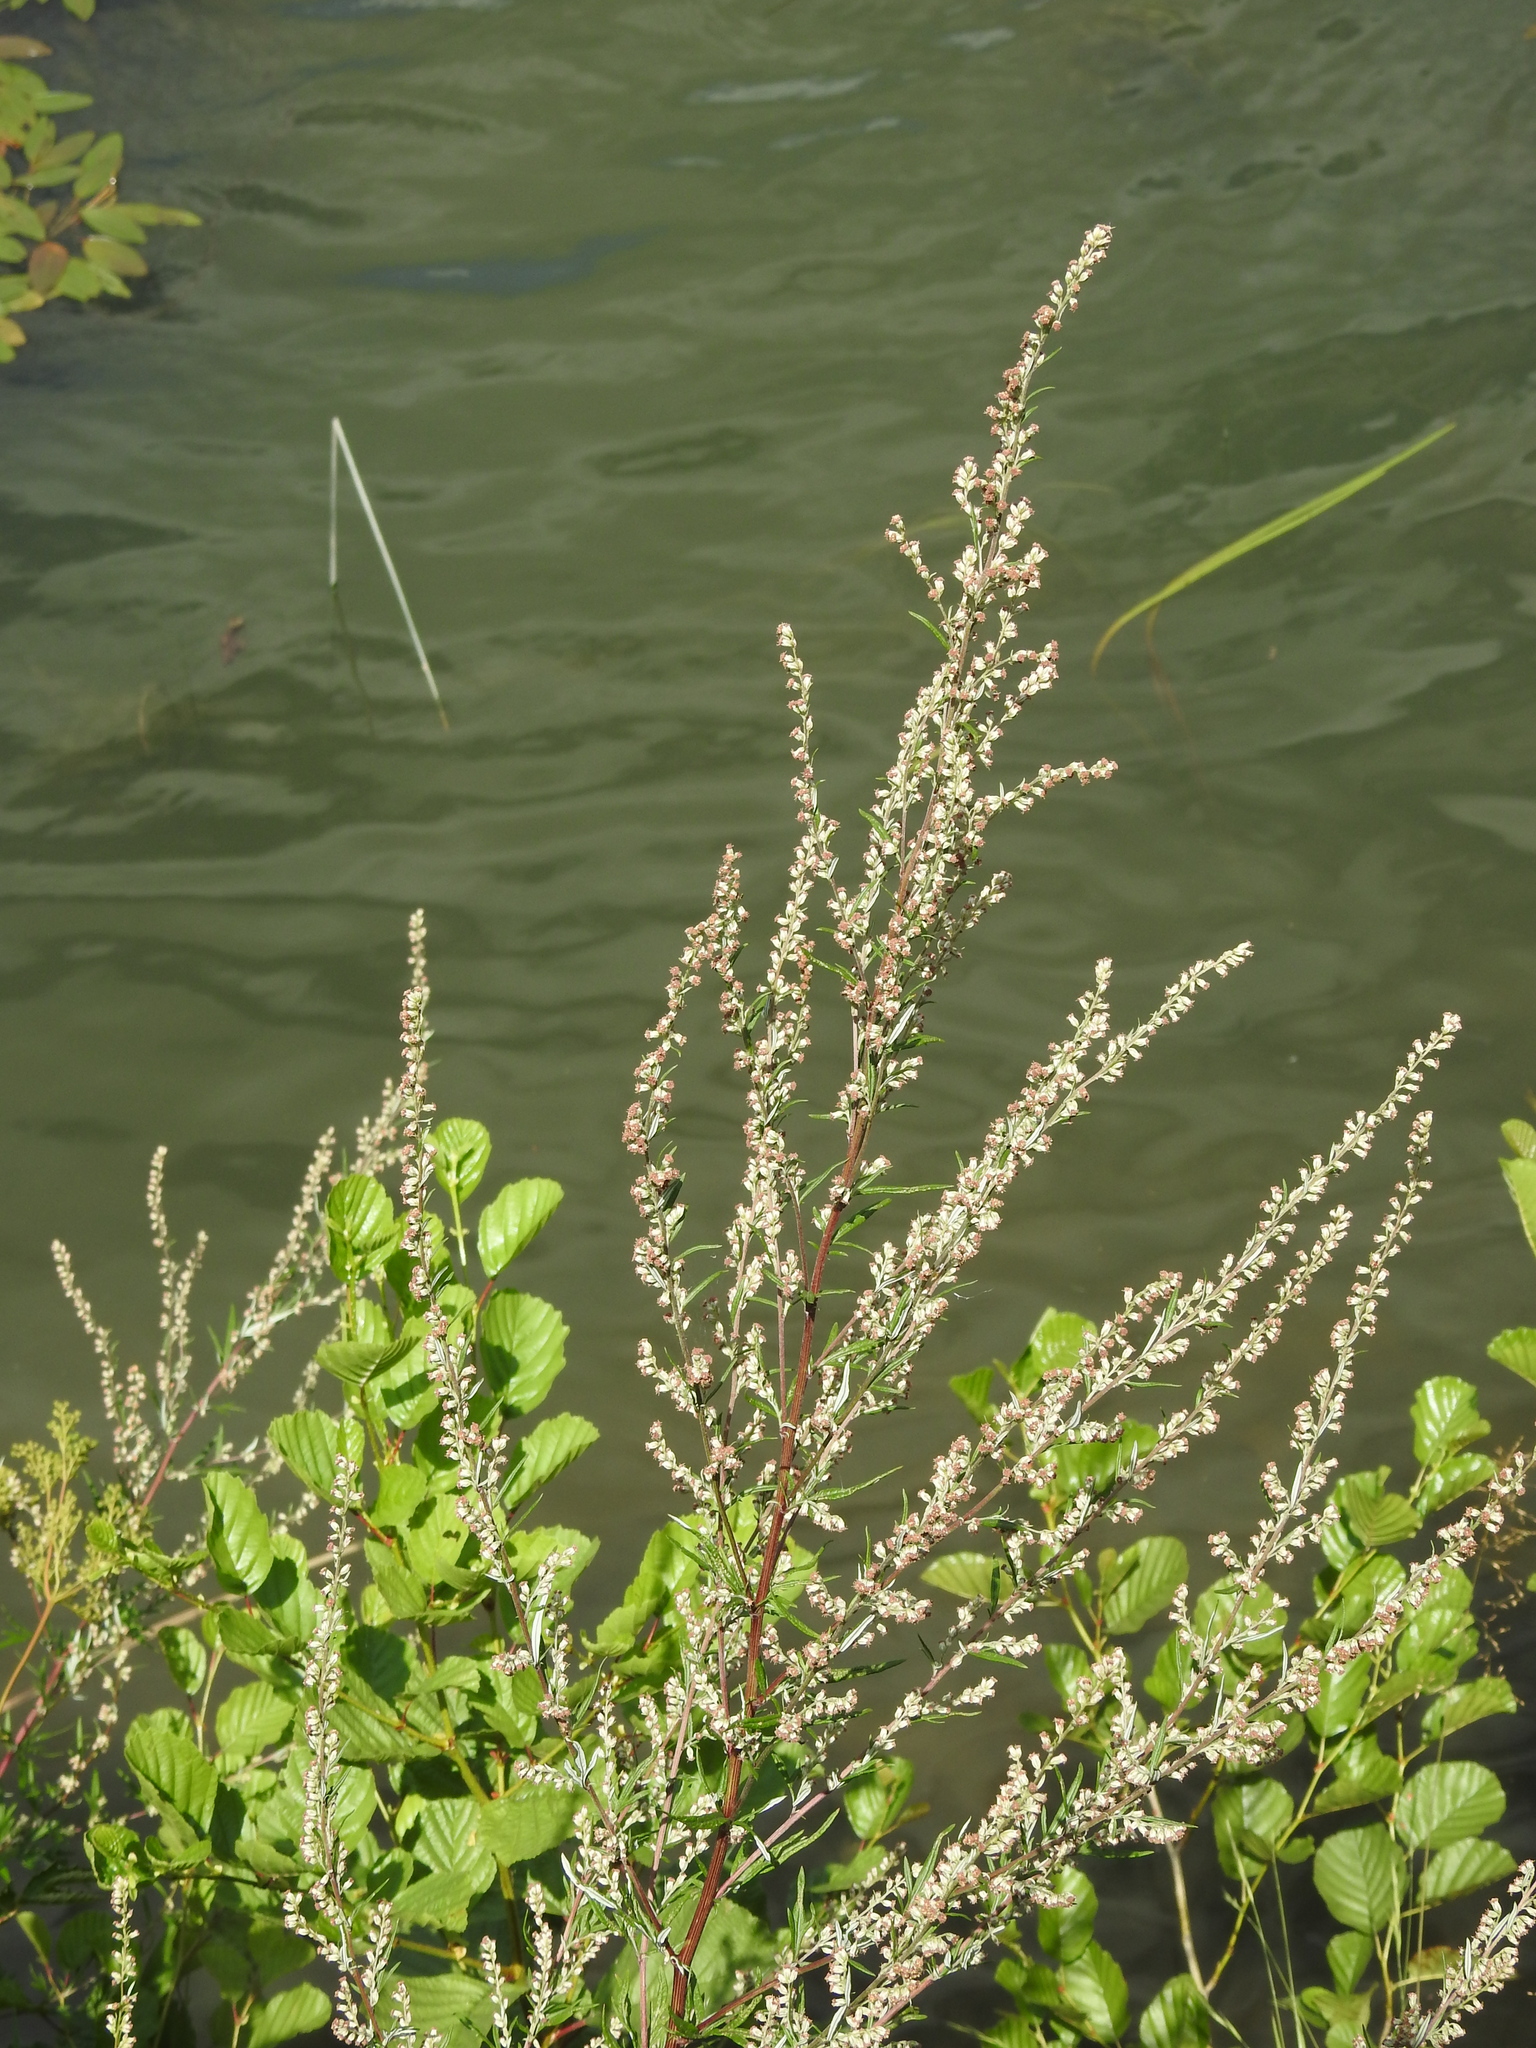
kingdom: Plantae
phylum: Tracheophyta
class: Magnoliopsida
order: Asterales
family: Asteraceae
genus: Artemisia
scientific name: Artemisia vulgaris
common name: Mugwort
